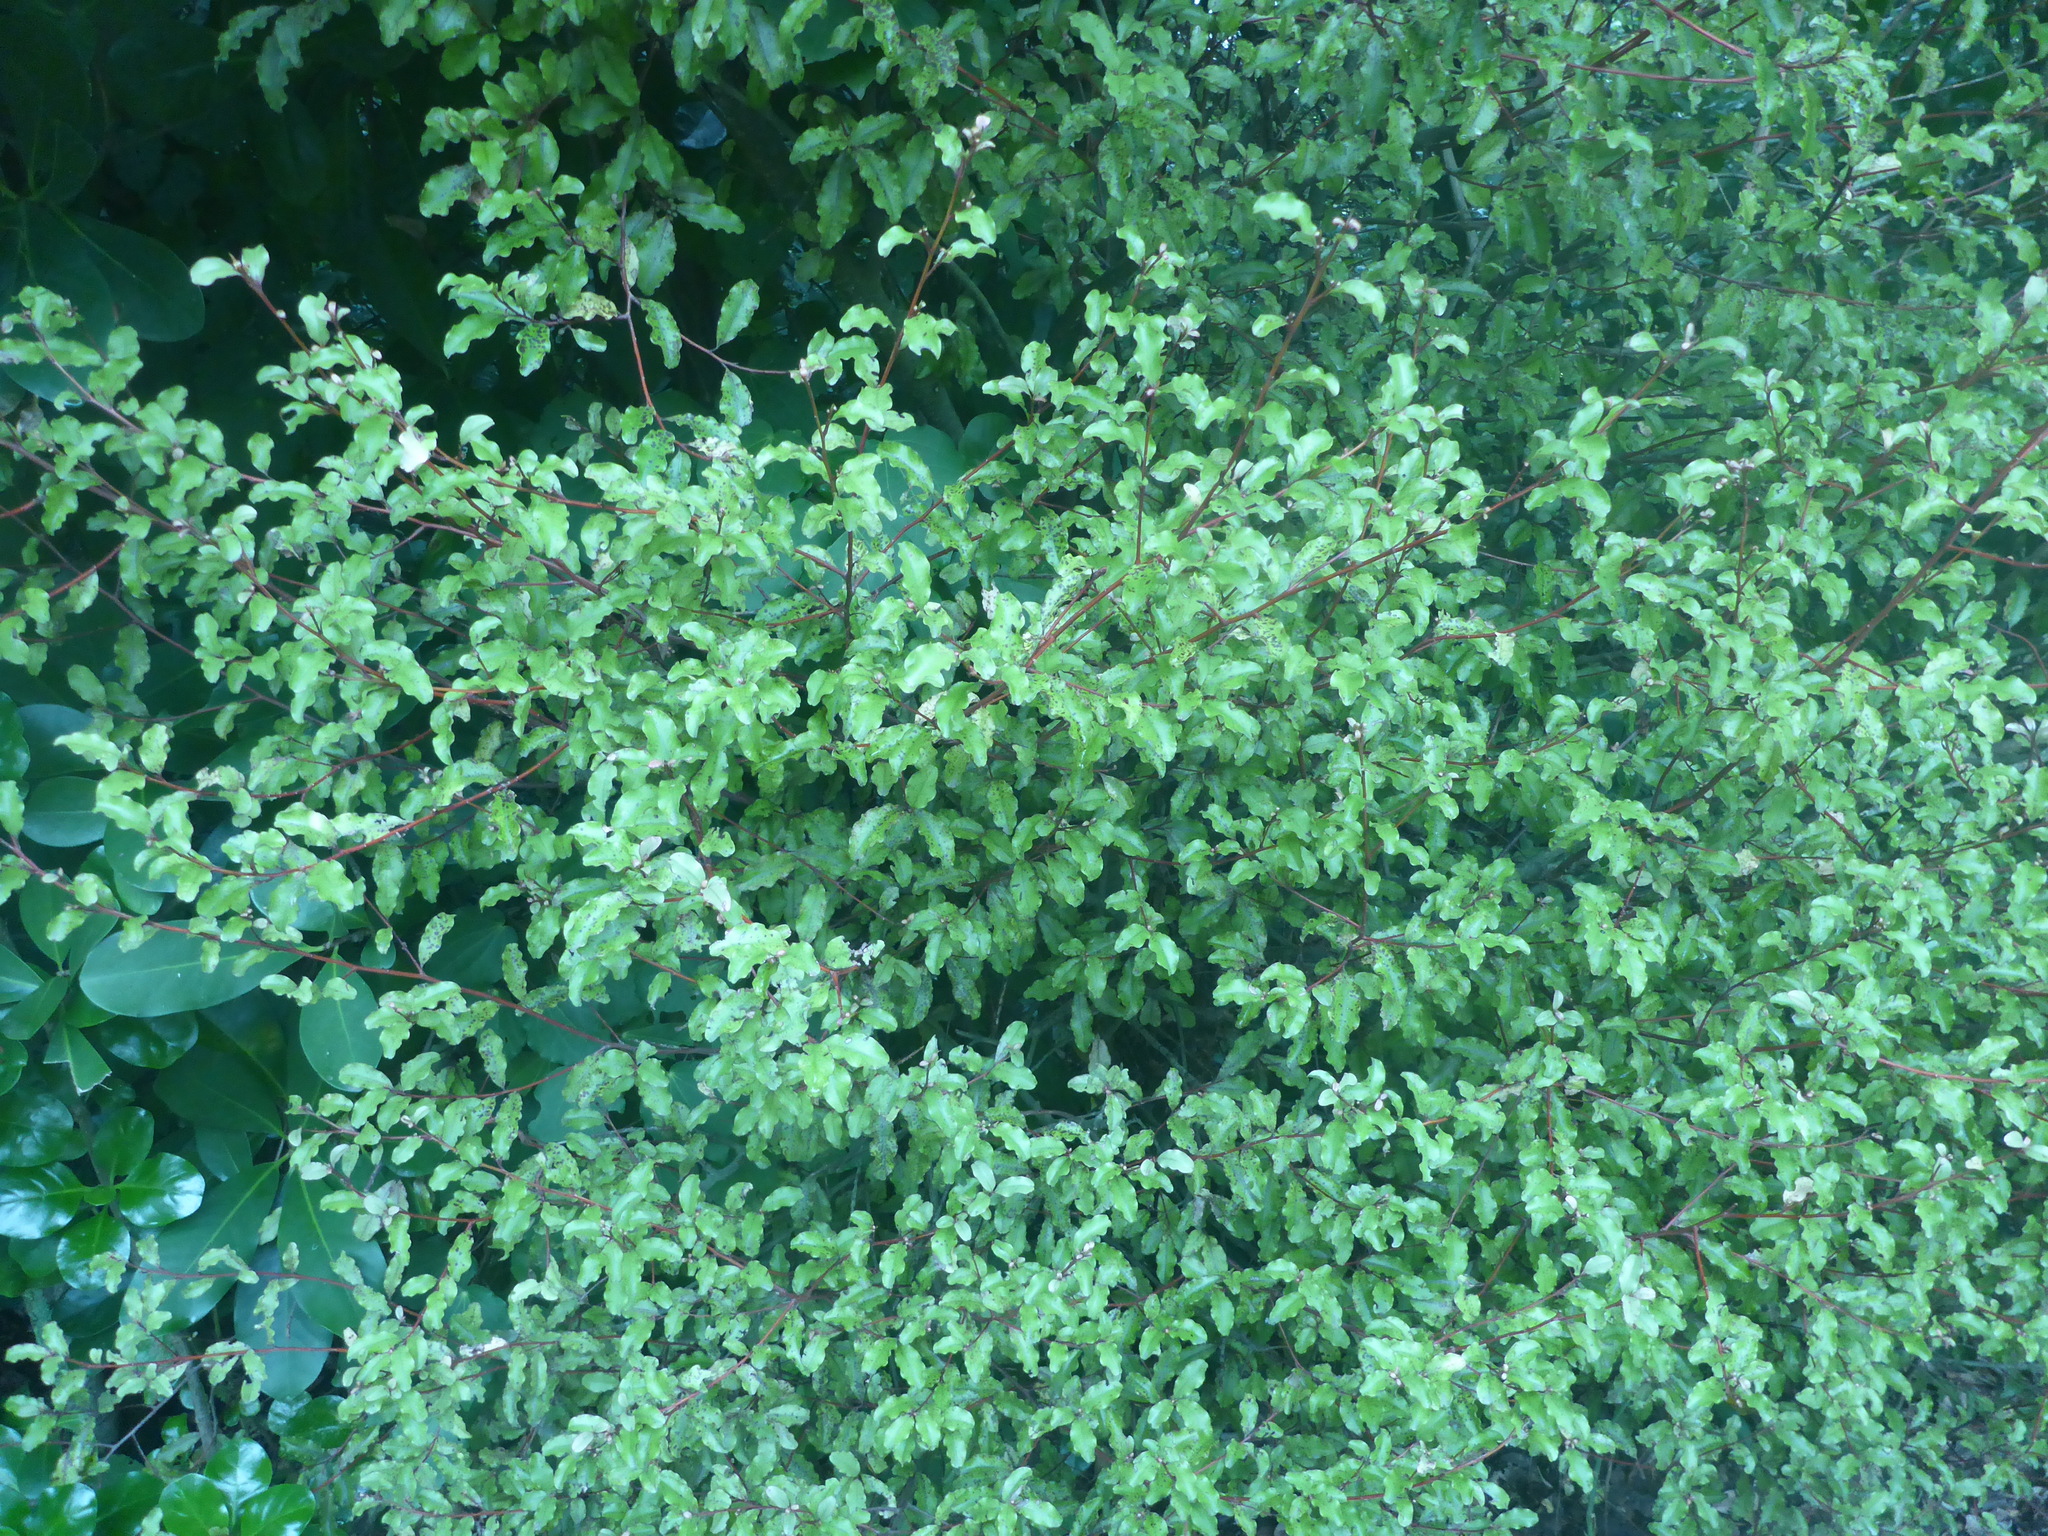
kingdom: Plantae
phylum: Tracheophyta
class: Magnoliopsida
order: Ericales
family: Primulaceae
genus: Myrsine
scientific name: Myrsine australis
